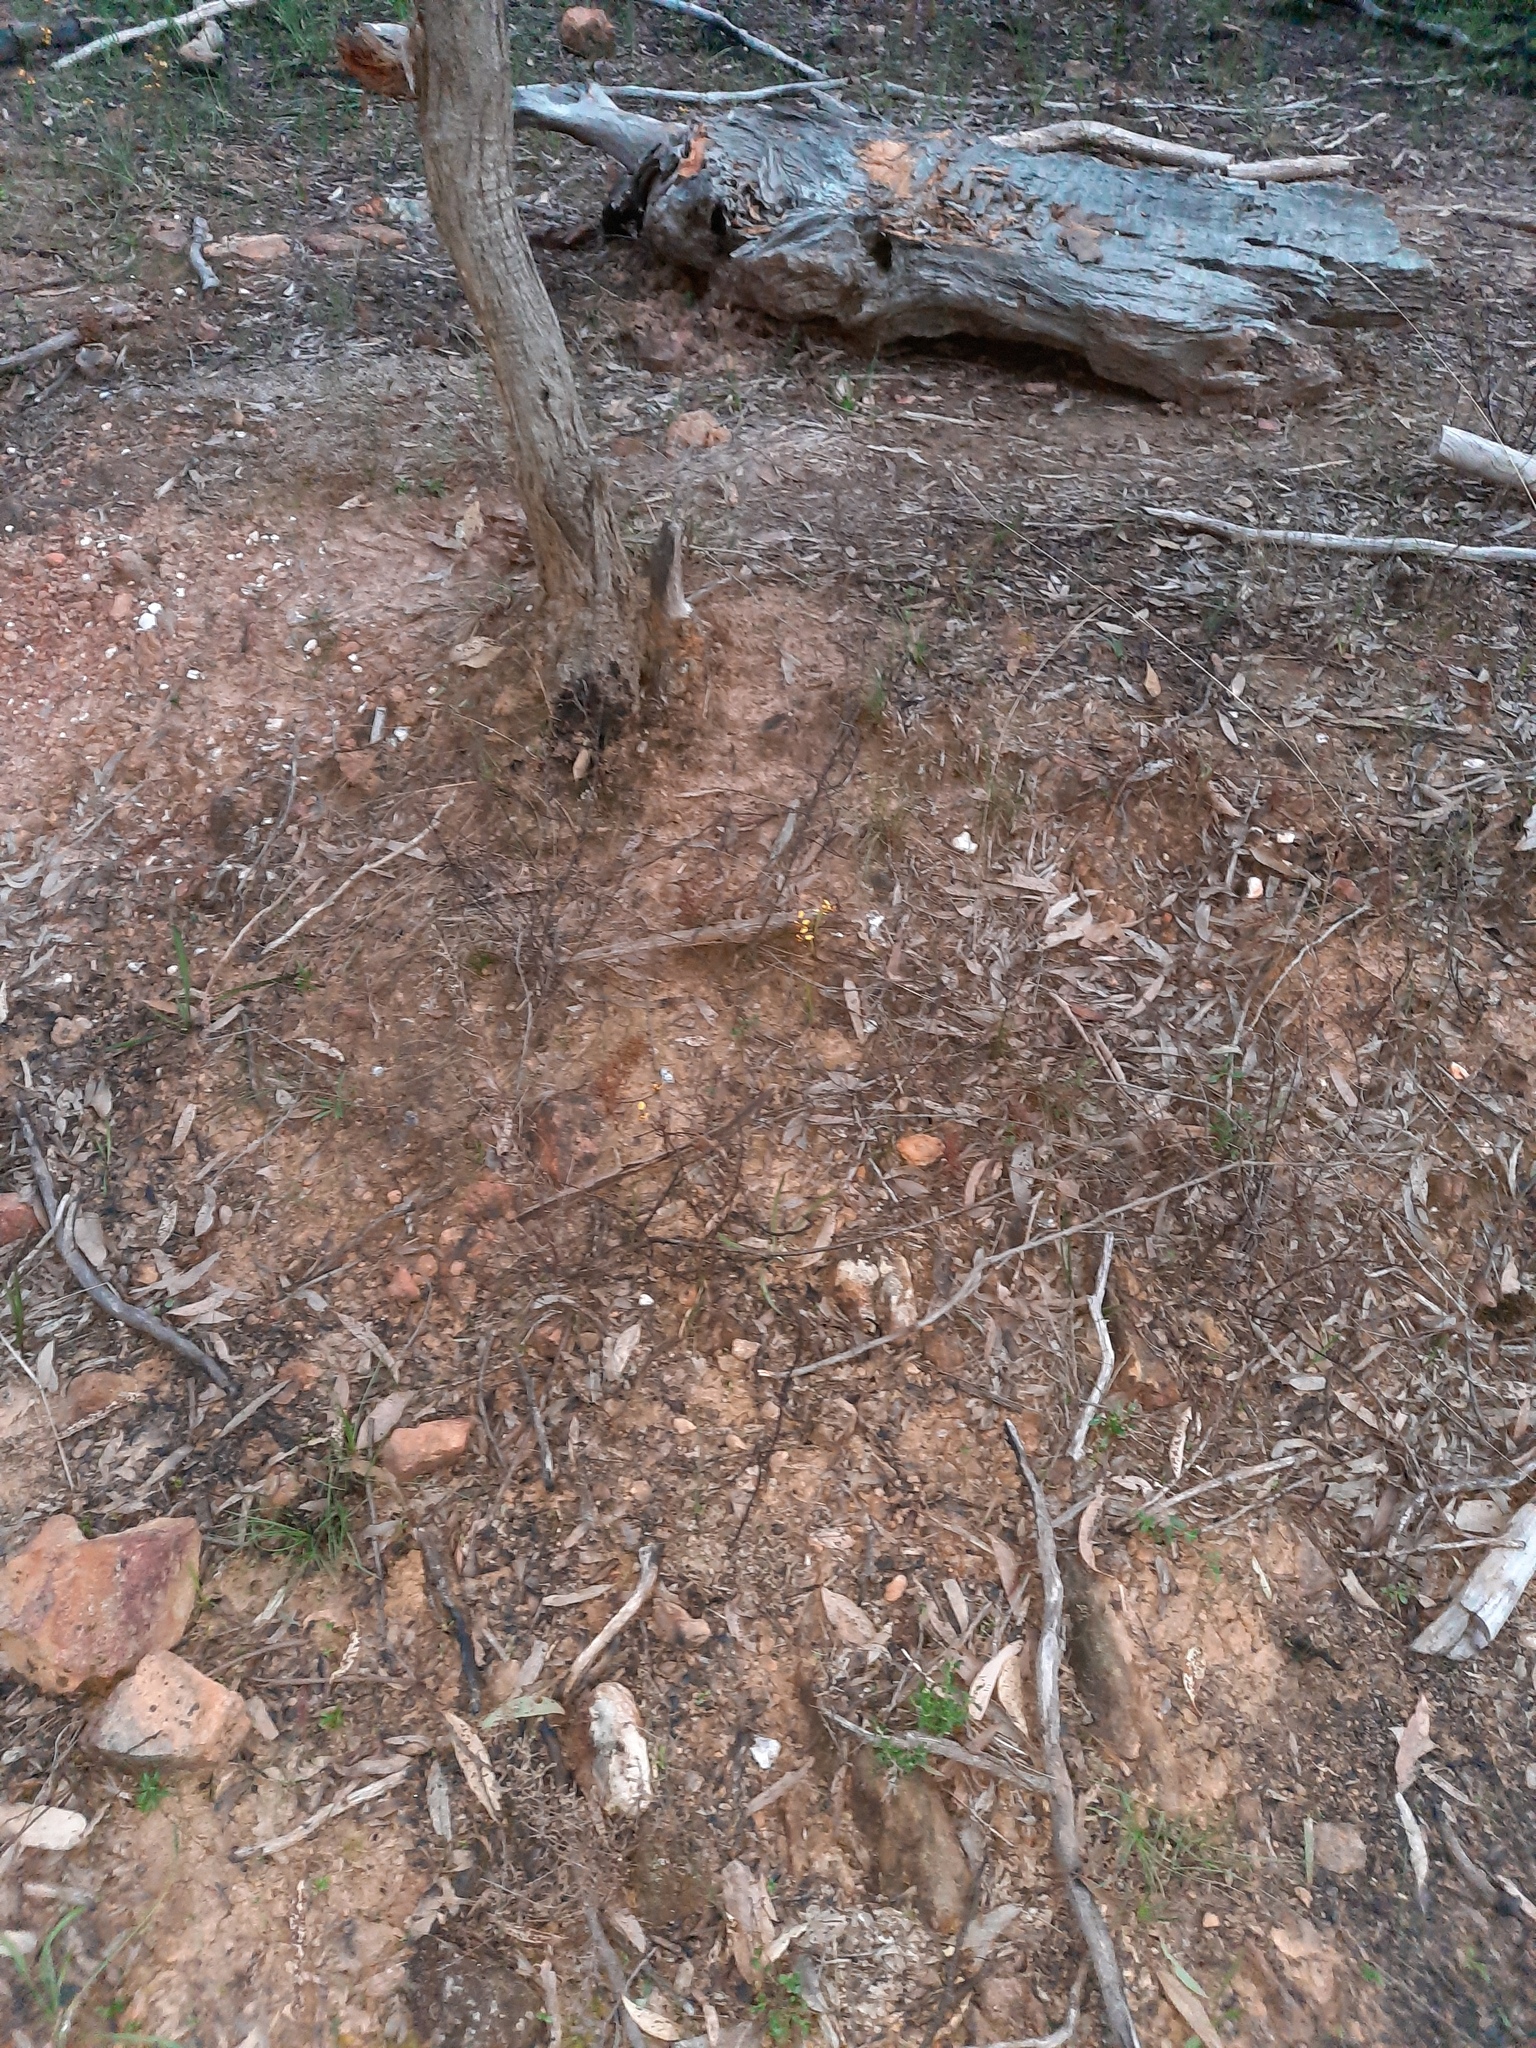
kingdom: Plantae
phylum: Tracheophyta
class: Liliopsida
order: Asparagales
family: Orchidaceae
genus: Diuris
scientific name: Diuris pardina
